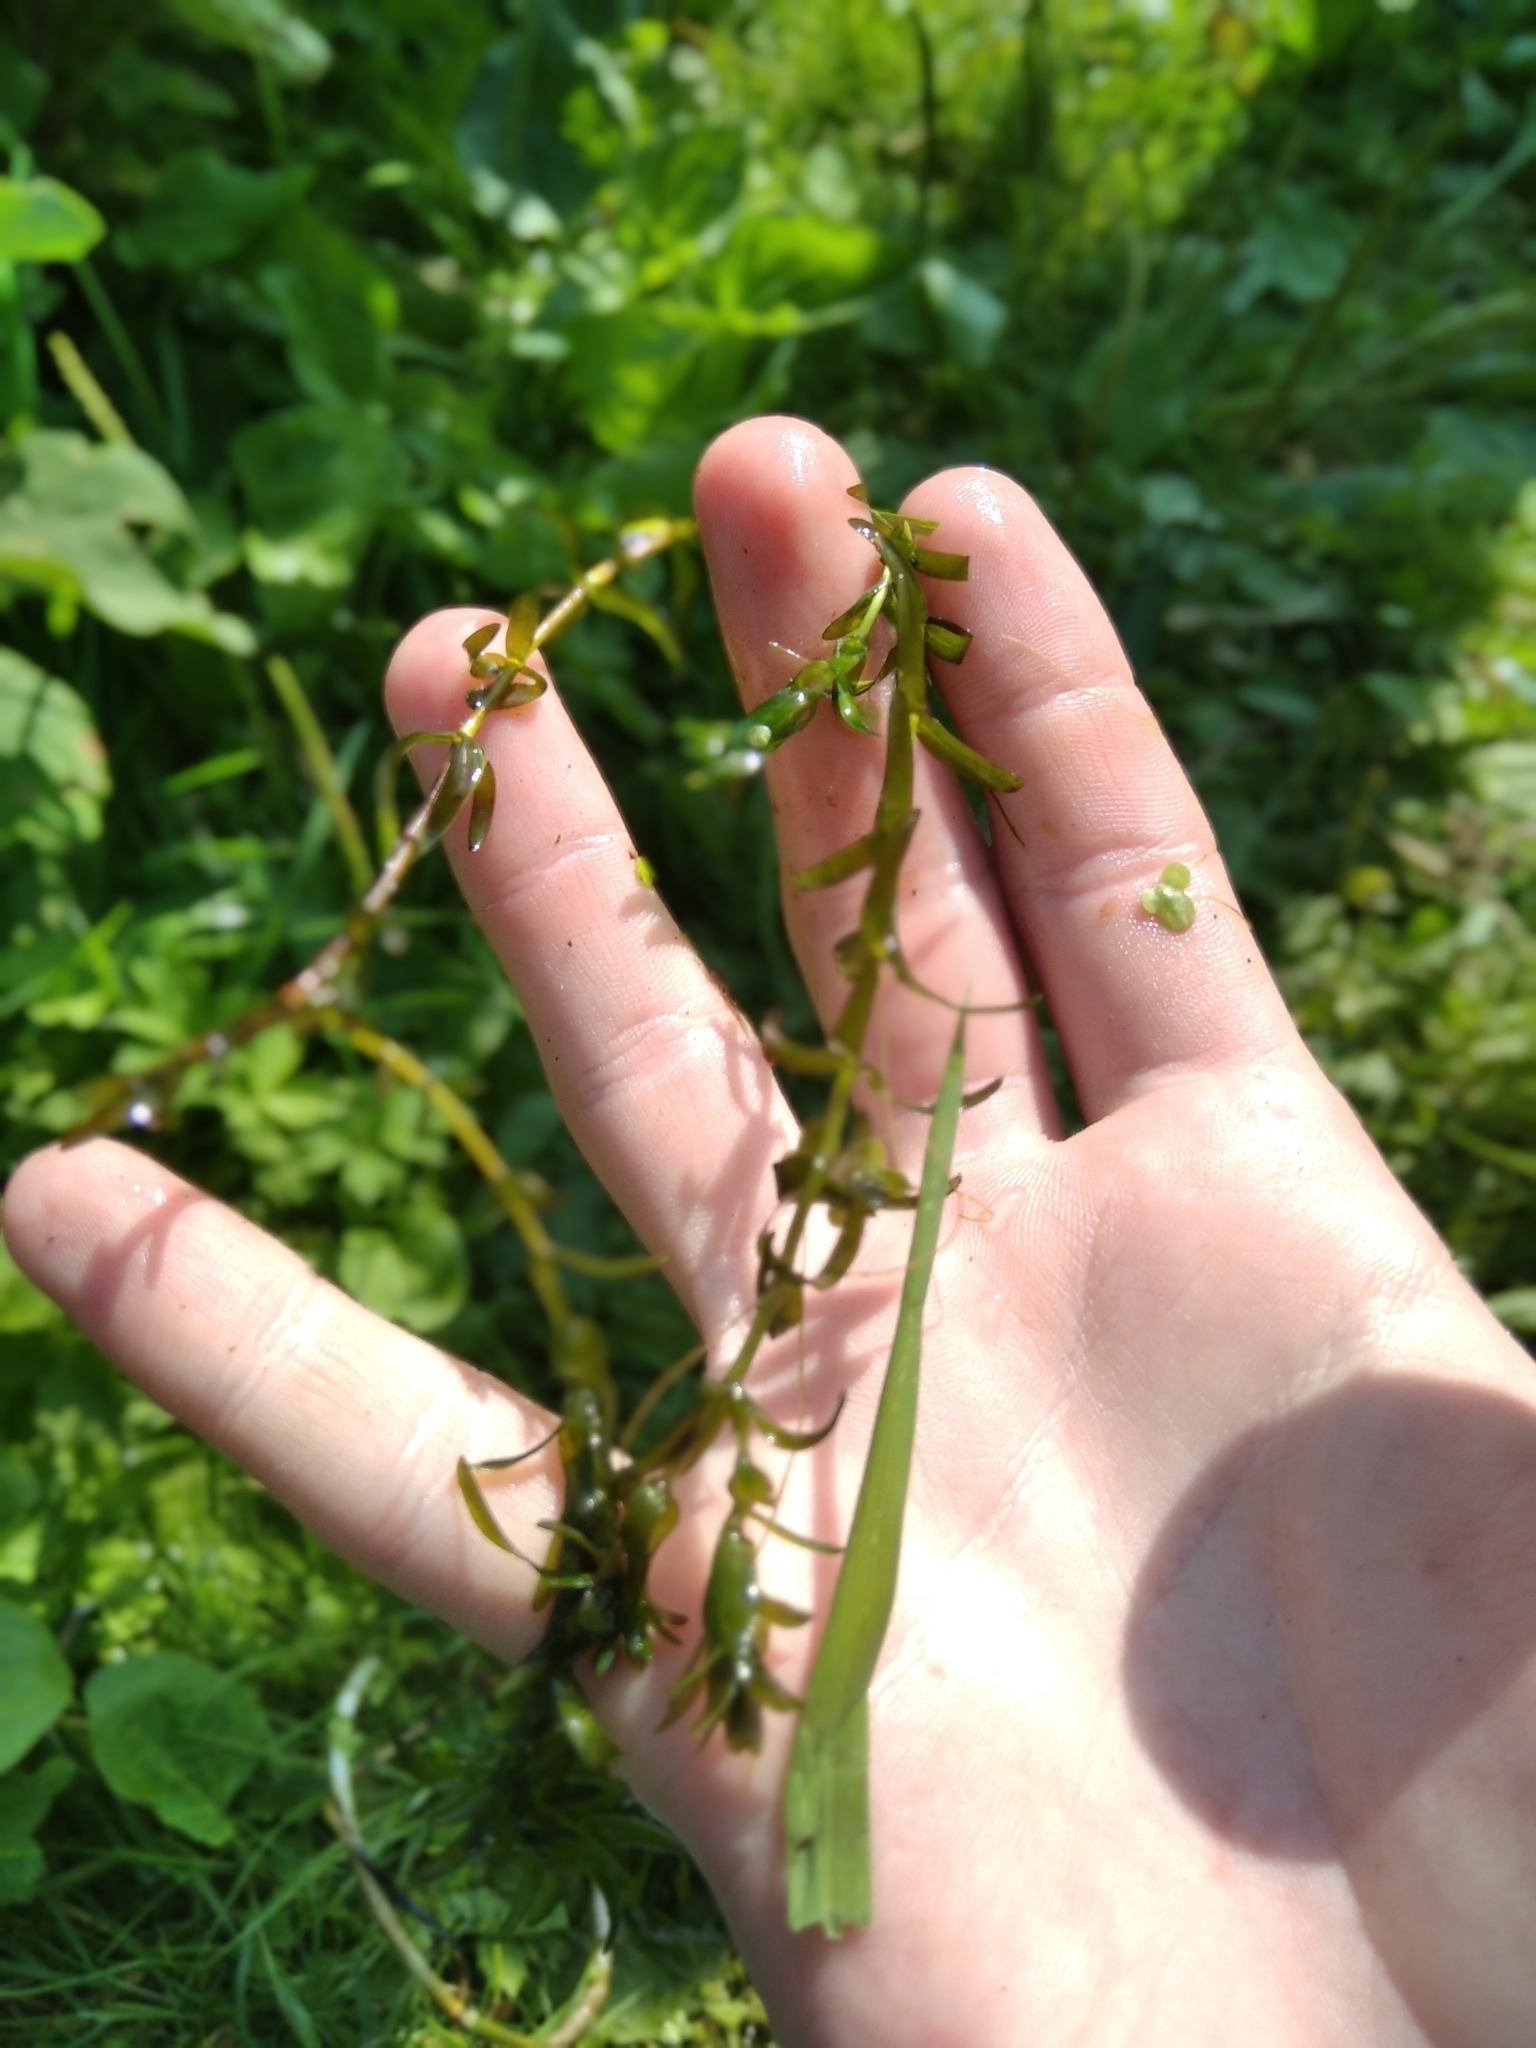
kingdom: Plantae
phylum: Tracheophyta
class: Liliopsida
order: Alismatales
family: Hydrocharitaceae
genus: Elodea
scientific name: Elodea canadensis
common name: Canadian waterweed
